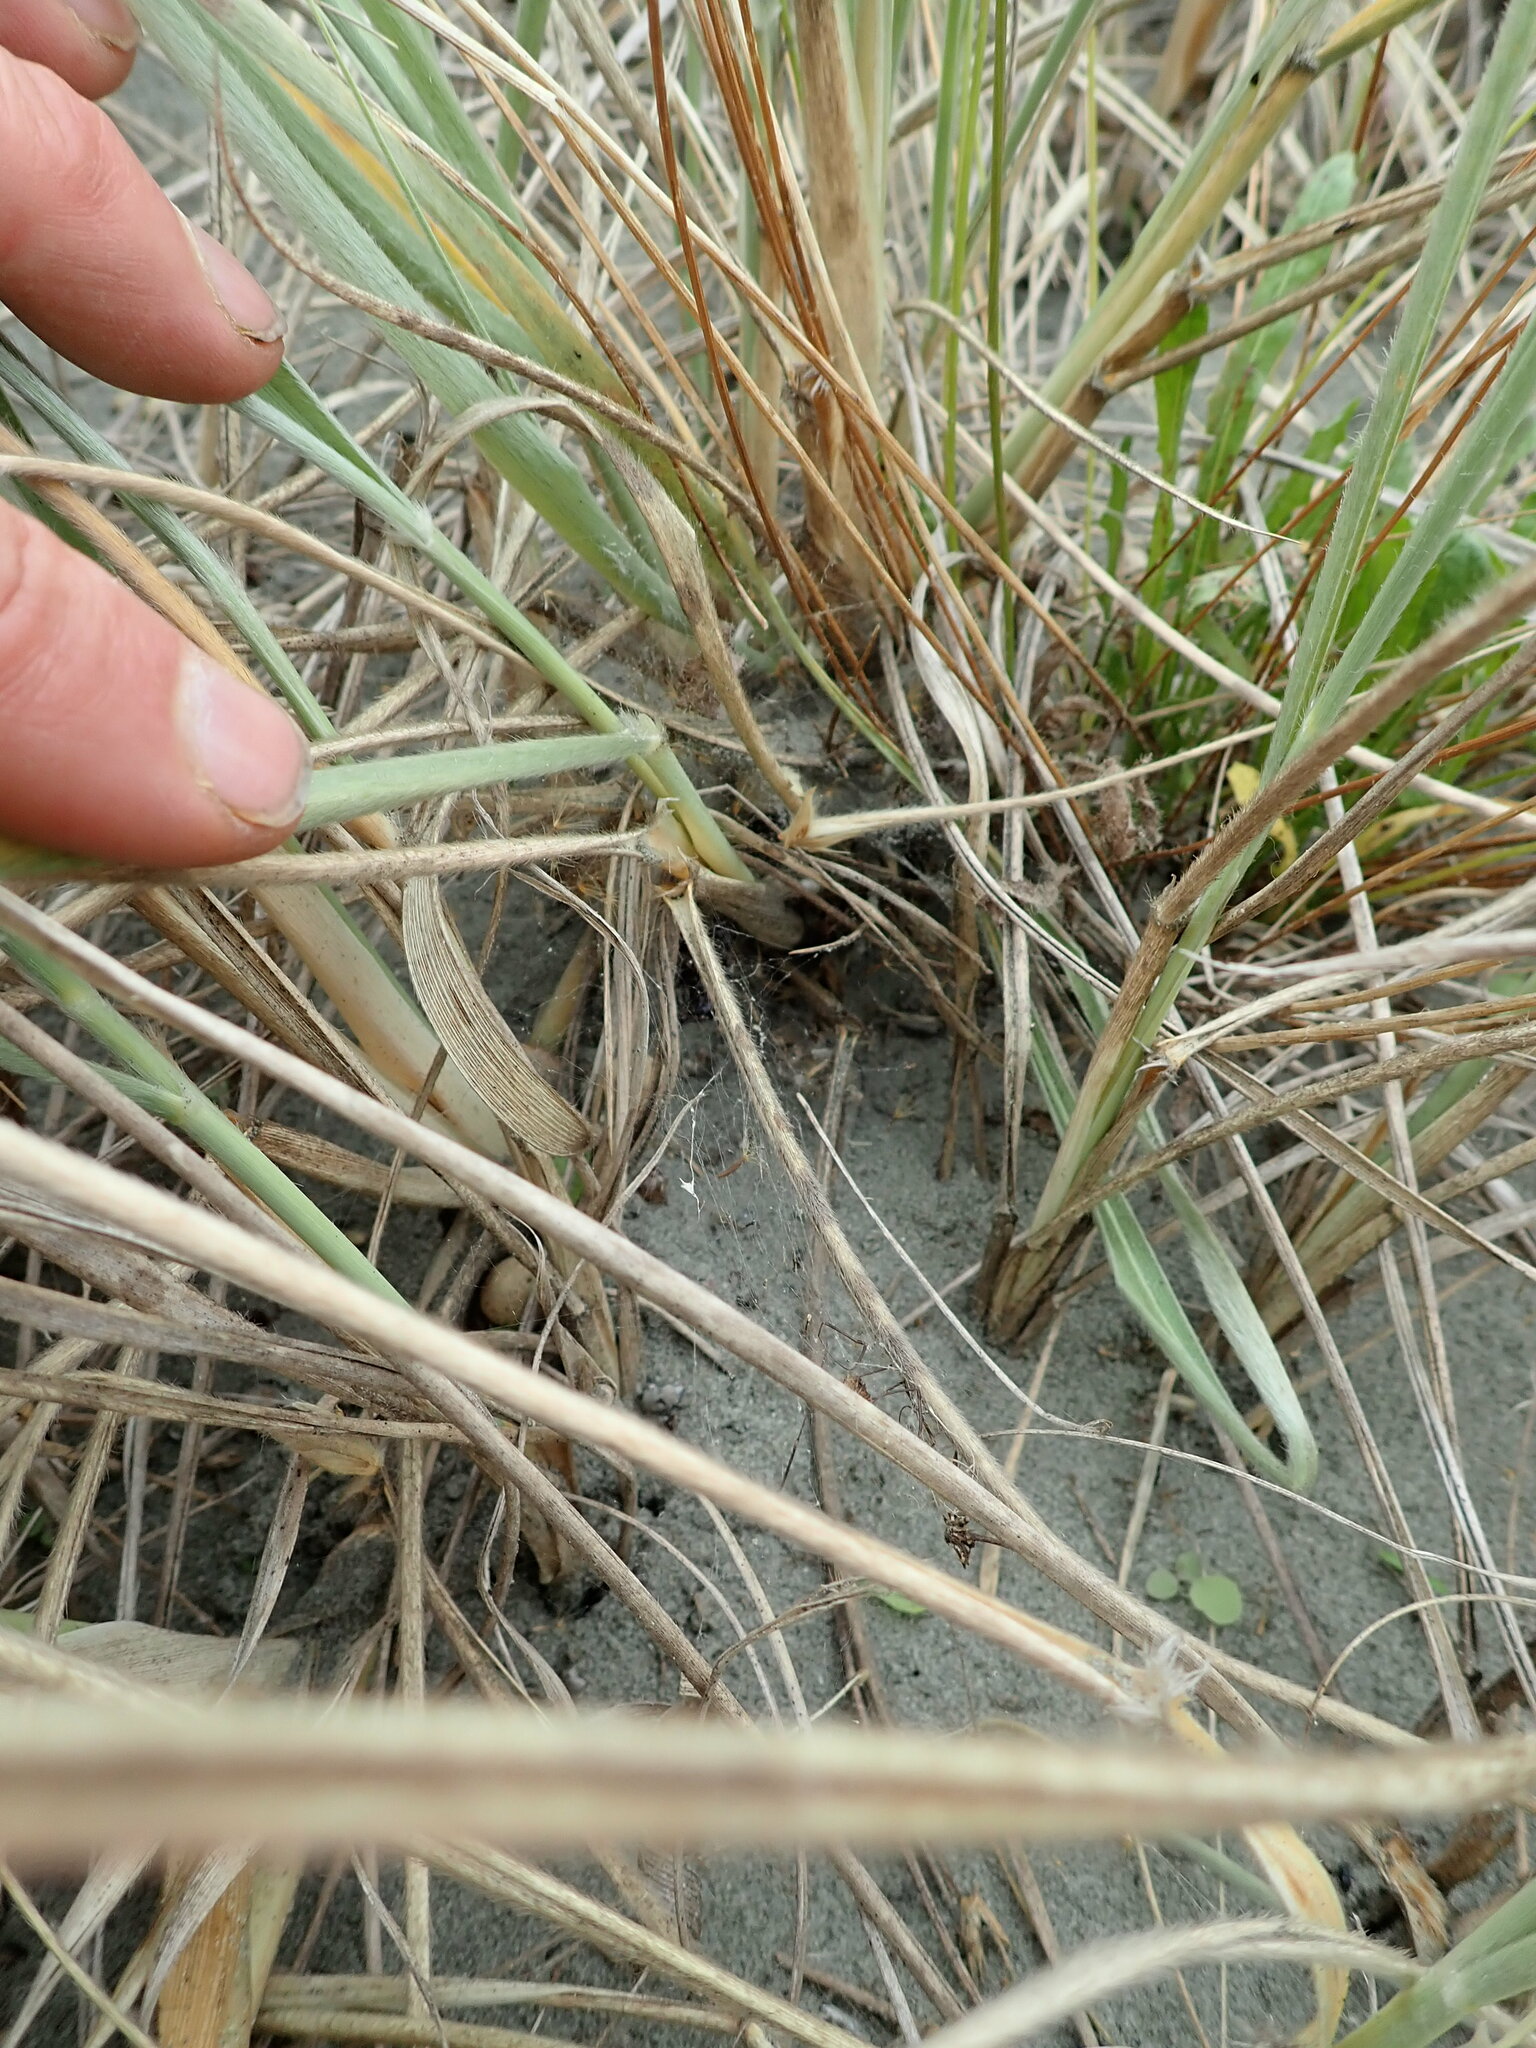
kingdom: Animalia
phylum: Arthropoda
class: Arachnida
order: Araneae
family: Theridiidae
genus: Latrodectus
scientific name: Latrodectus katipo
